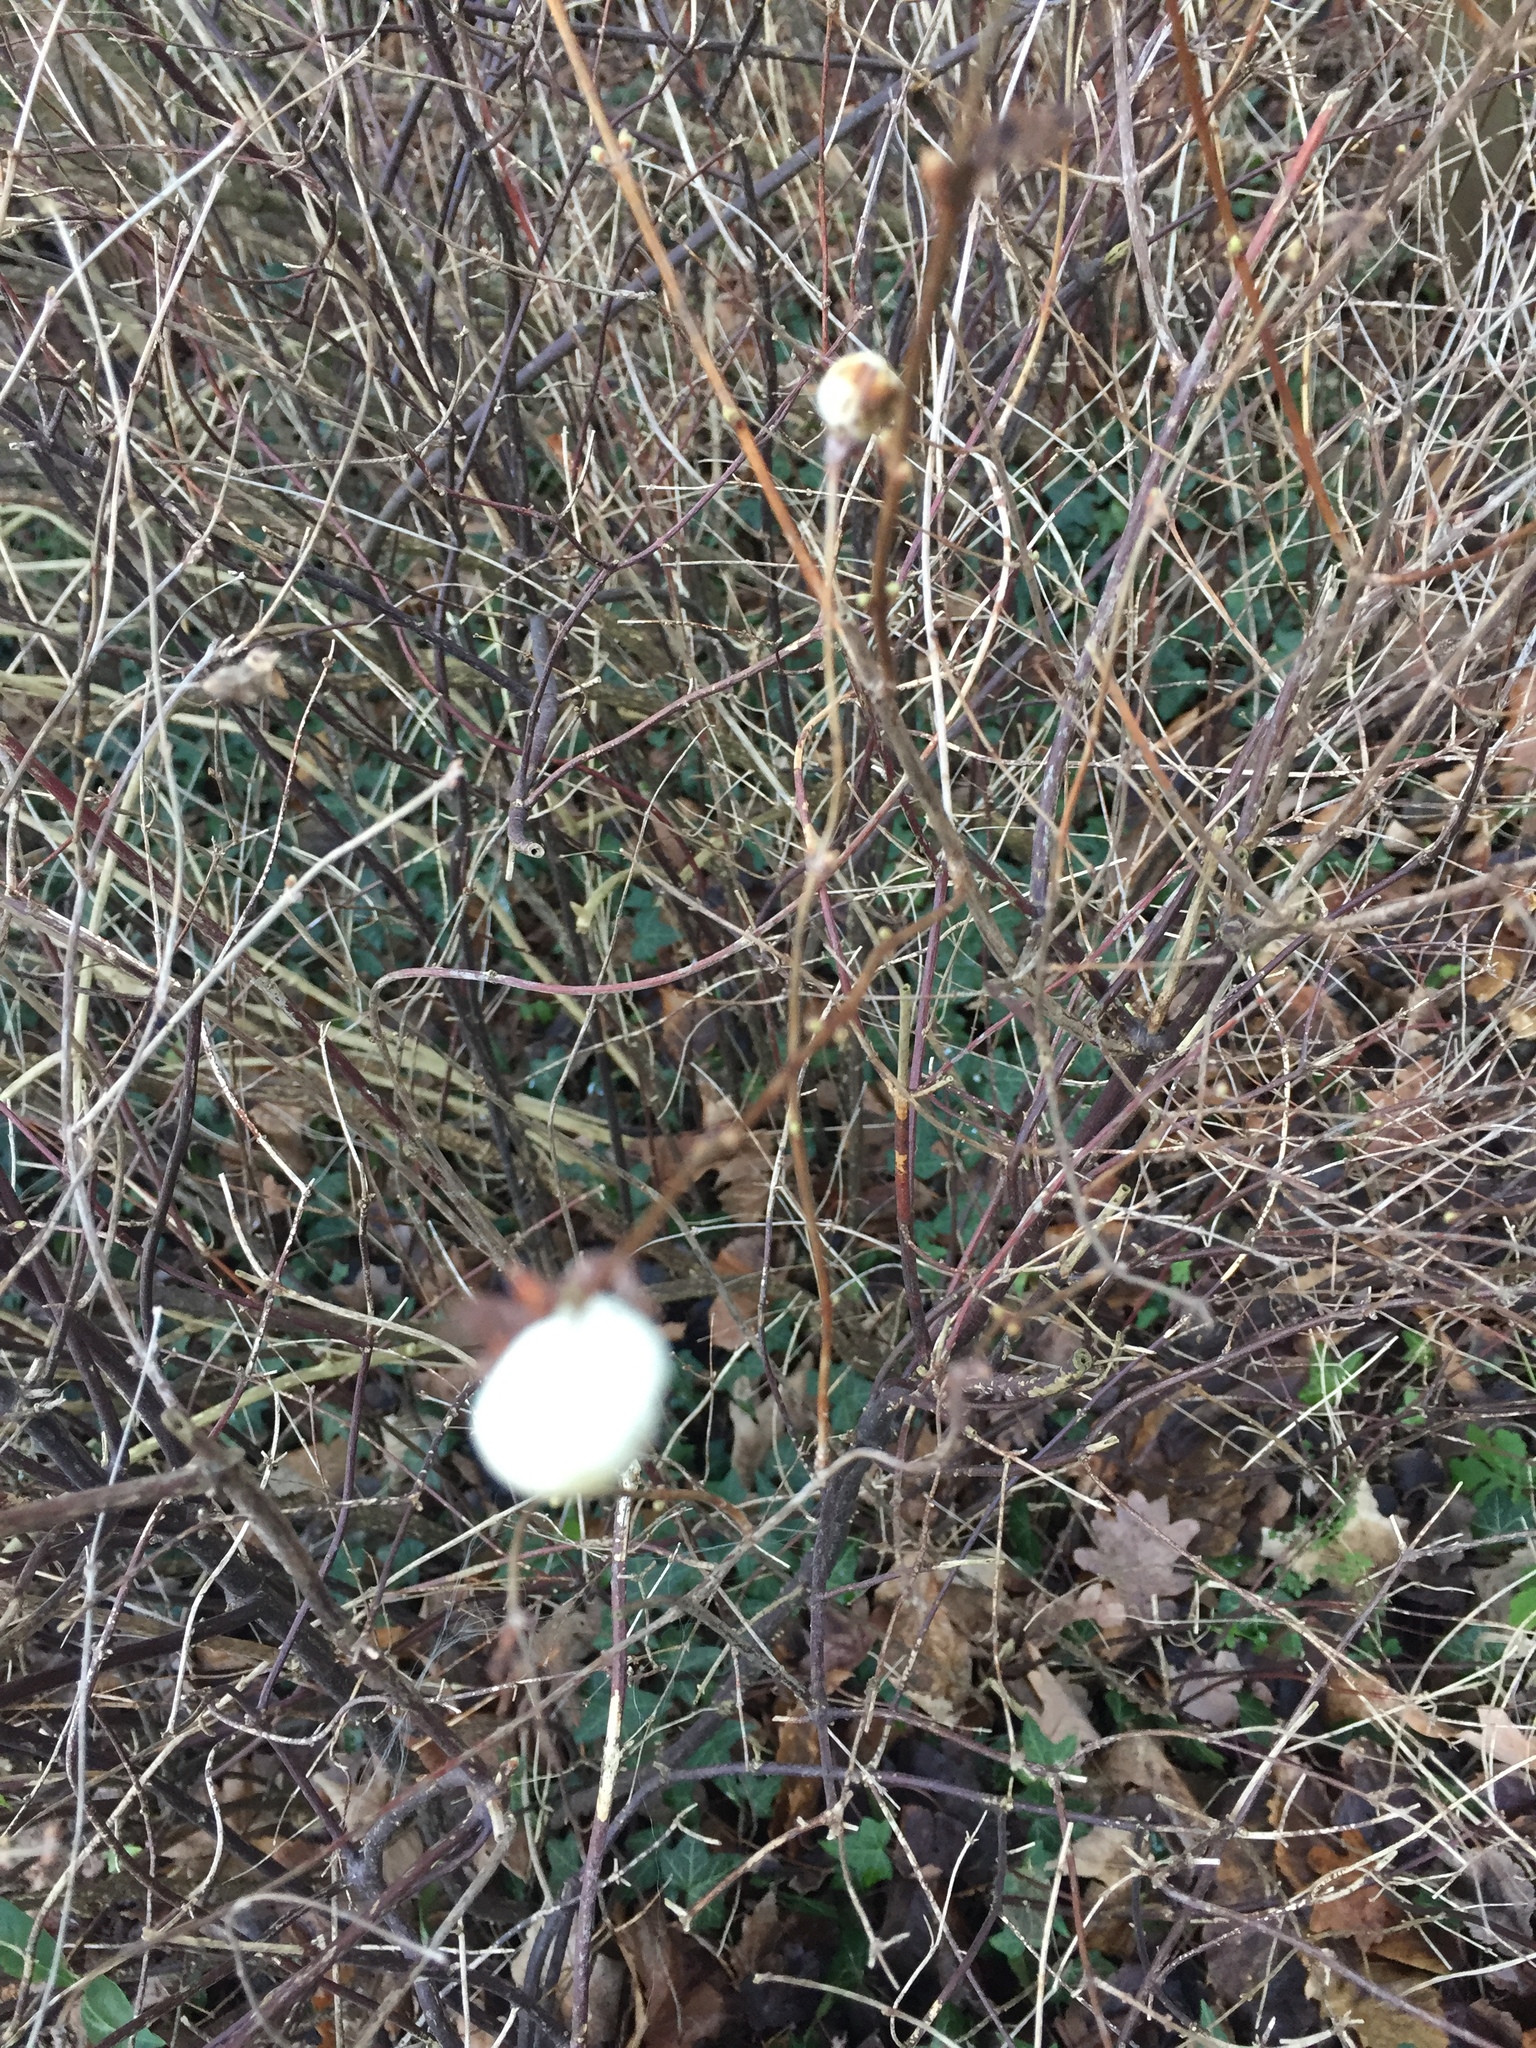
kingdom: Plantae
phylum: Tracheophyta
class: Magnoliopsida
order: Dipsacales
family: Caprifoliaceae
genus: Symphoricarpos
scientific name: Symphoricarpos albus
